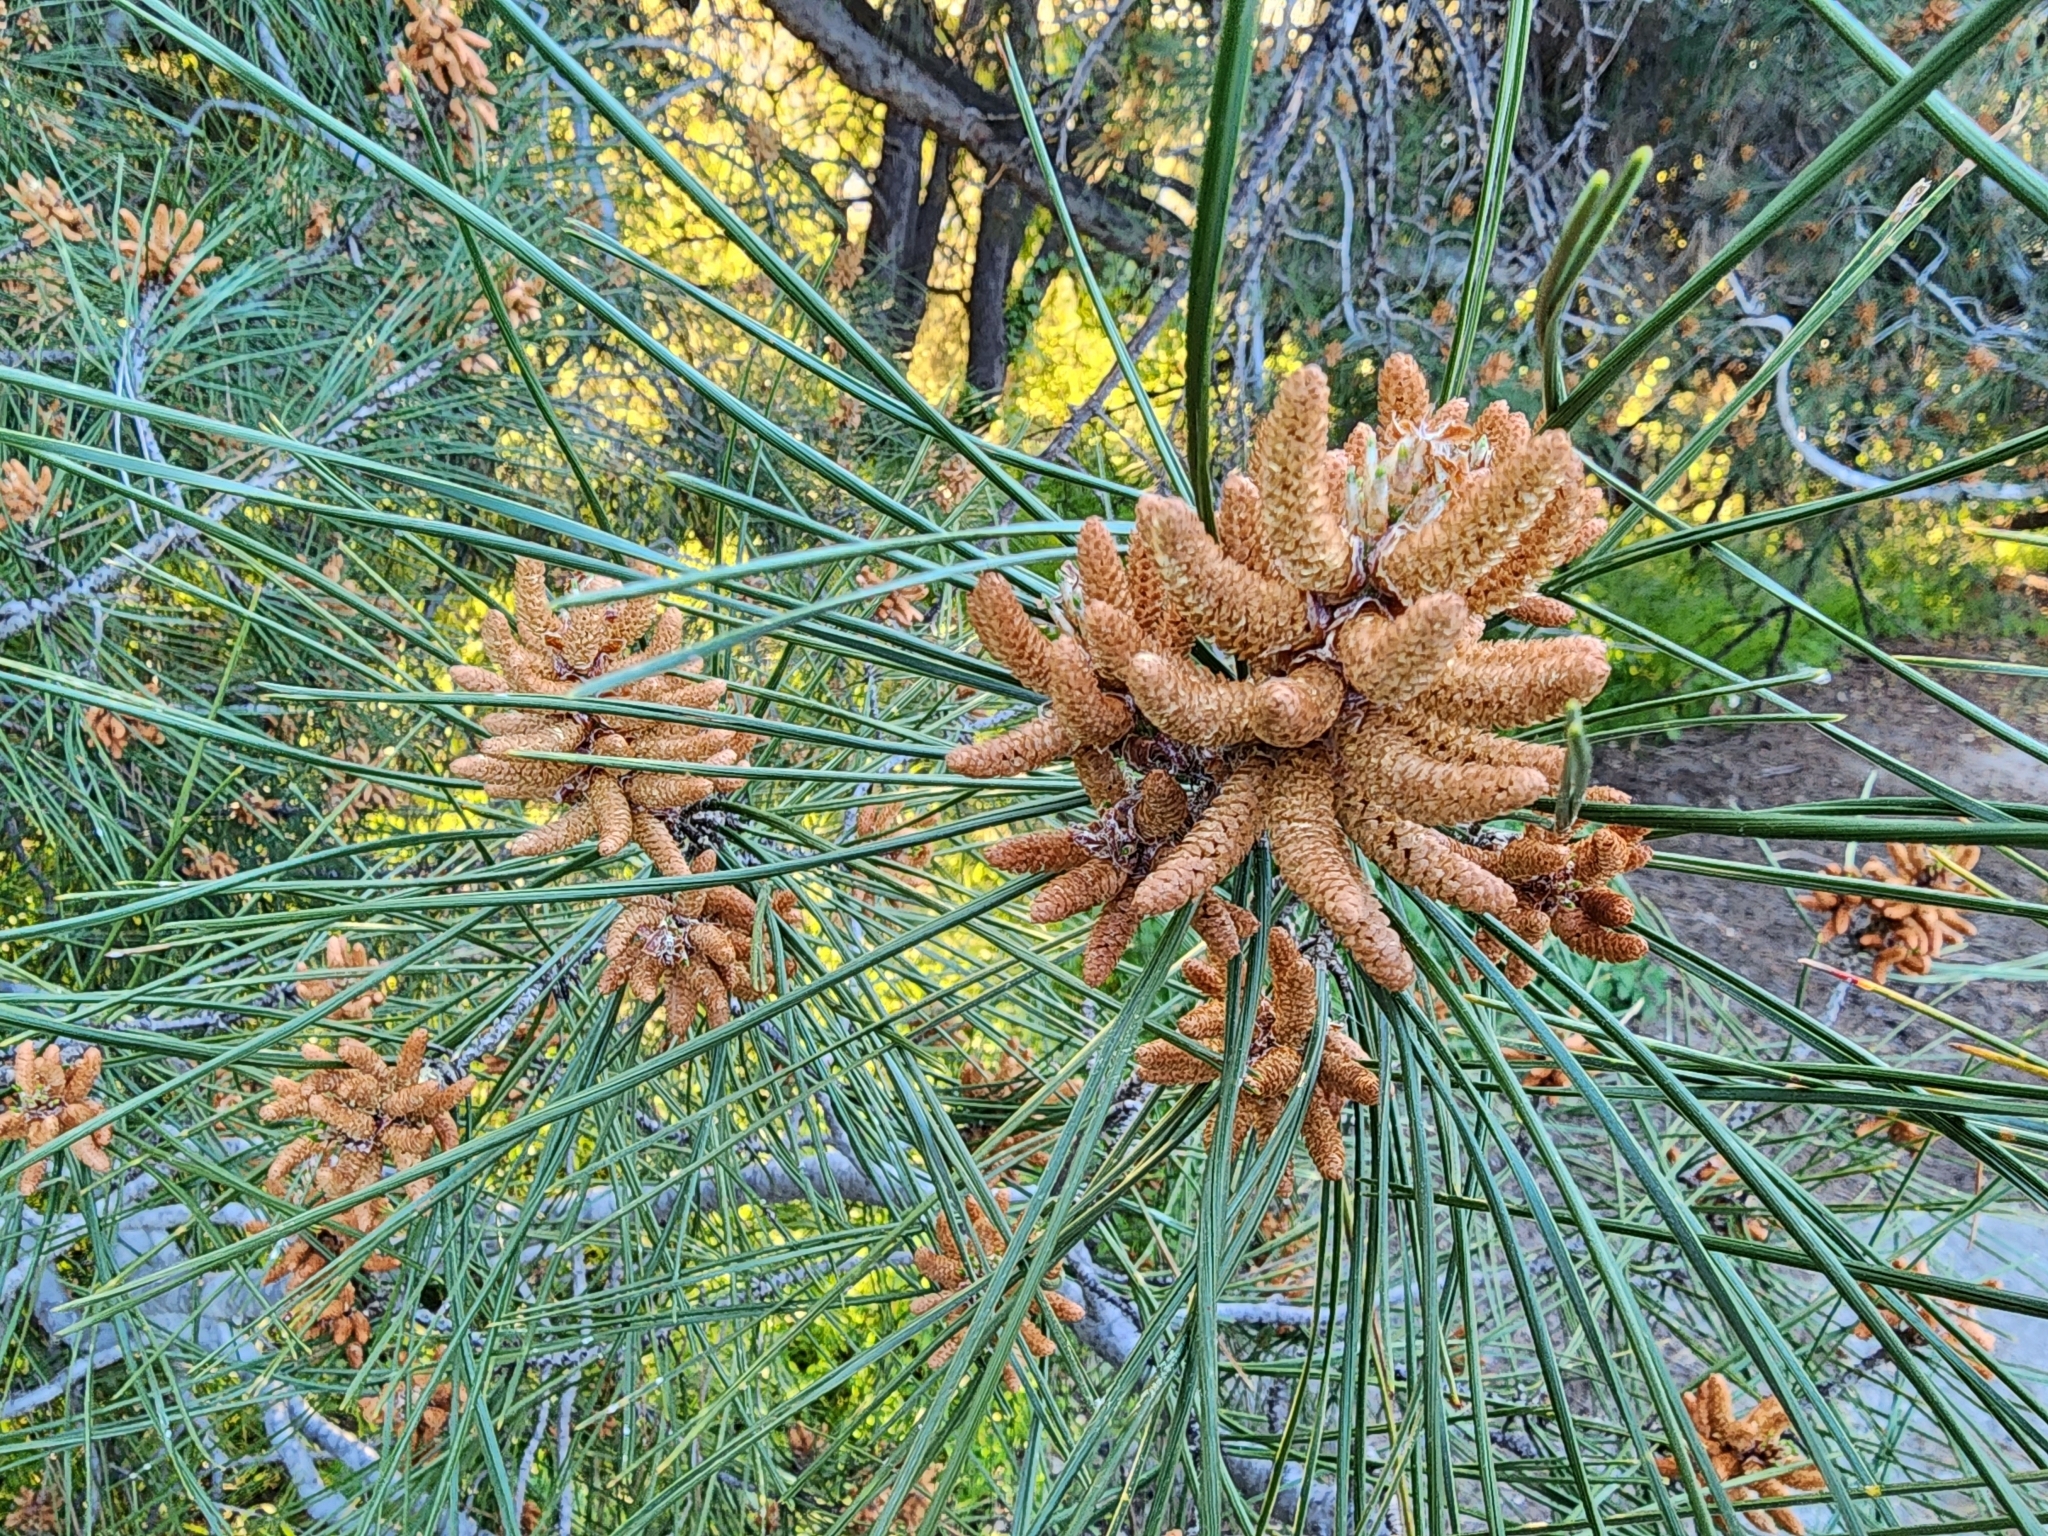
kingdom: Plantae
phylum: Tracheophyta
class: Pinopsida
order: Pinales
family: Pinaceae
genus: Pinus
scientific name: Pinus coulteri
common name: Coulter pine
